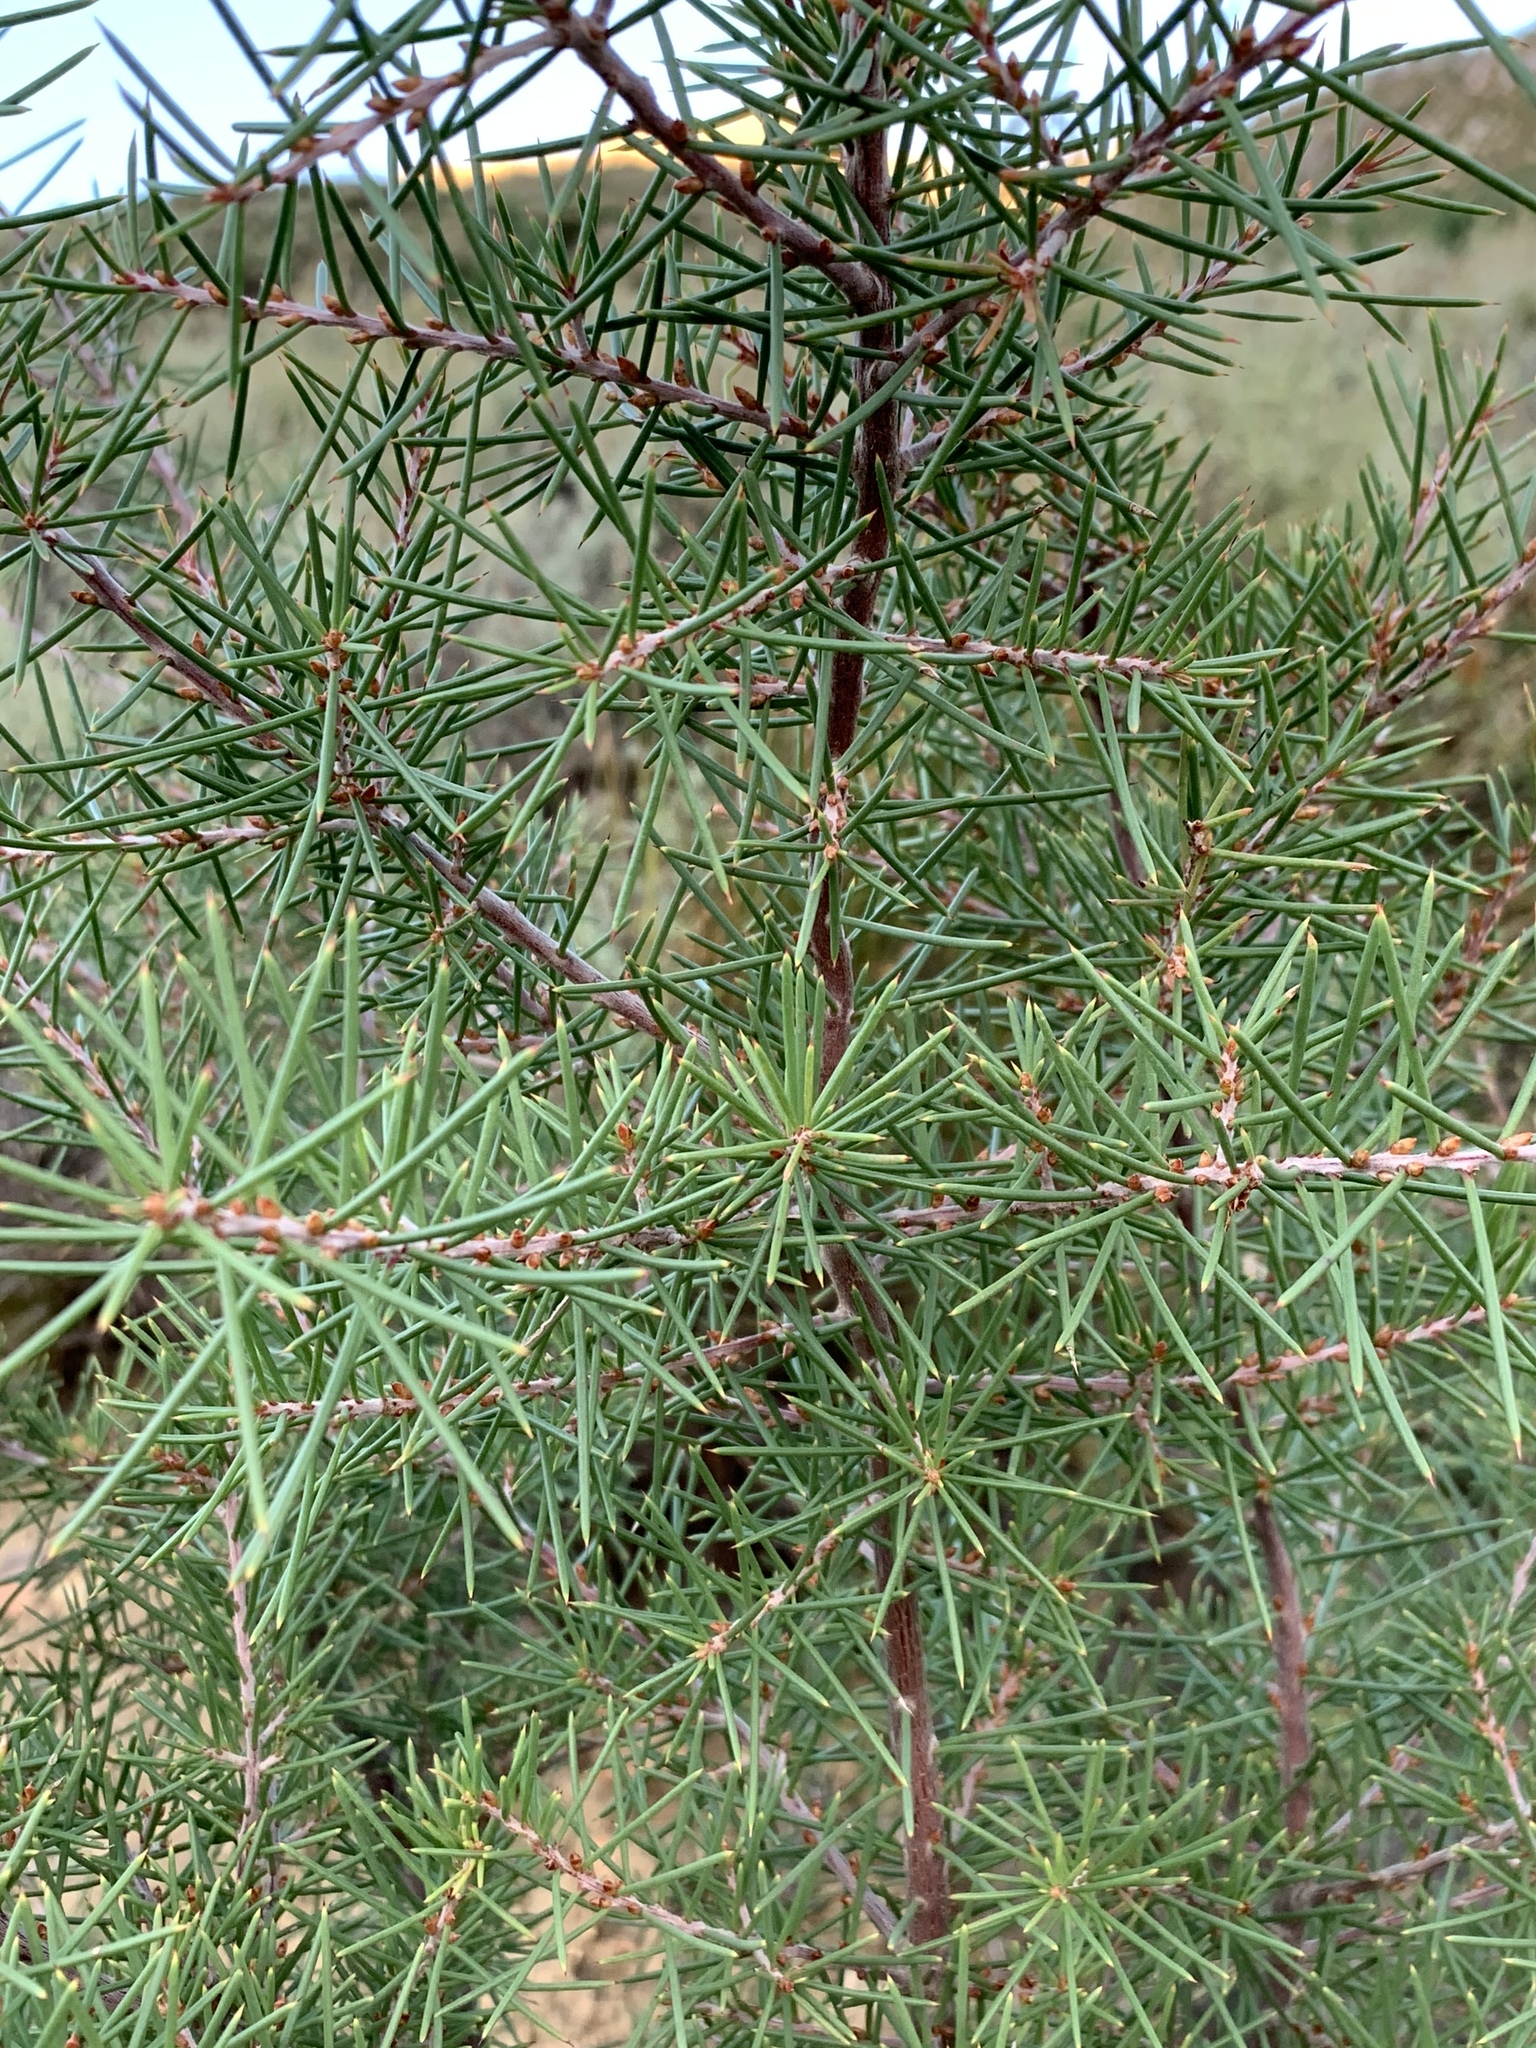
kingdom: Plantae
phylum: Tracheophyta
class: Magnoliopsida
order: Proteales
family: Proteaceae
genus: Hakea
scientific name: Hakea sericea
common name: Needle bush
